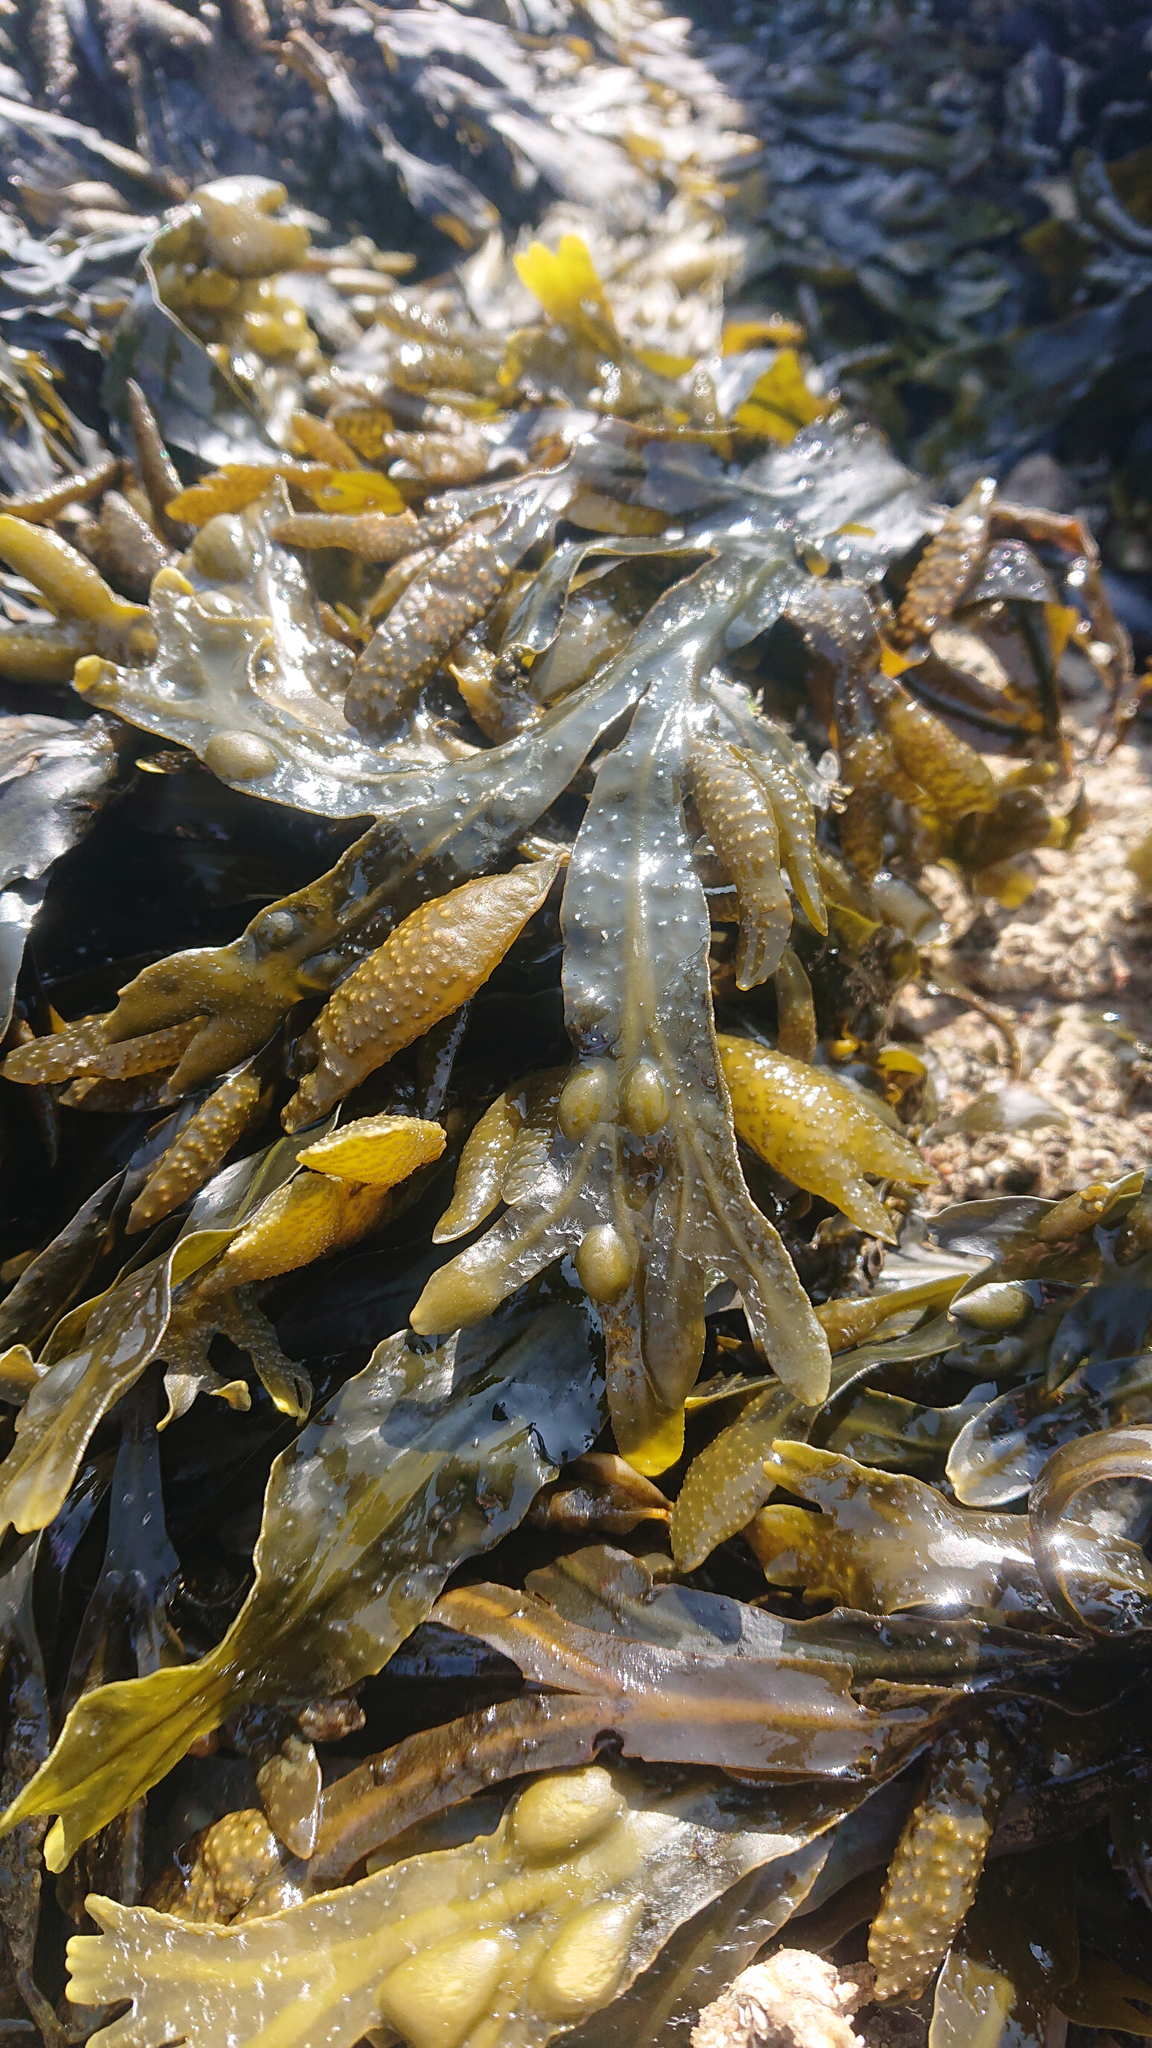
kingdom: Chromista
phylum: Ochrophyta
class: Phaeophyceae
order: Fucales
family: Fucaceae
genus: Fucus
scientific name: Fucus vesiculosus
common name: Bladder wrack
